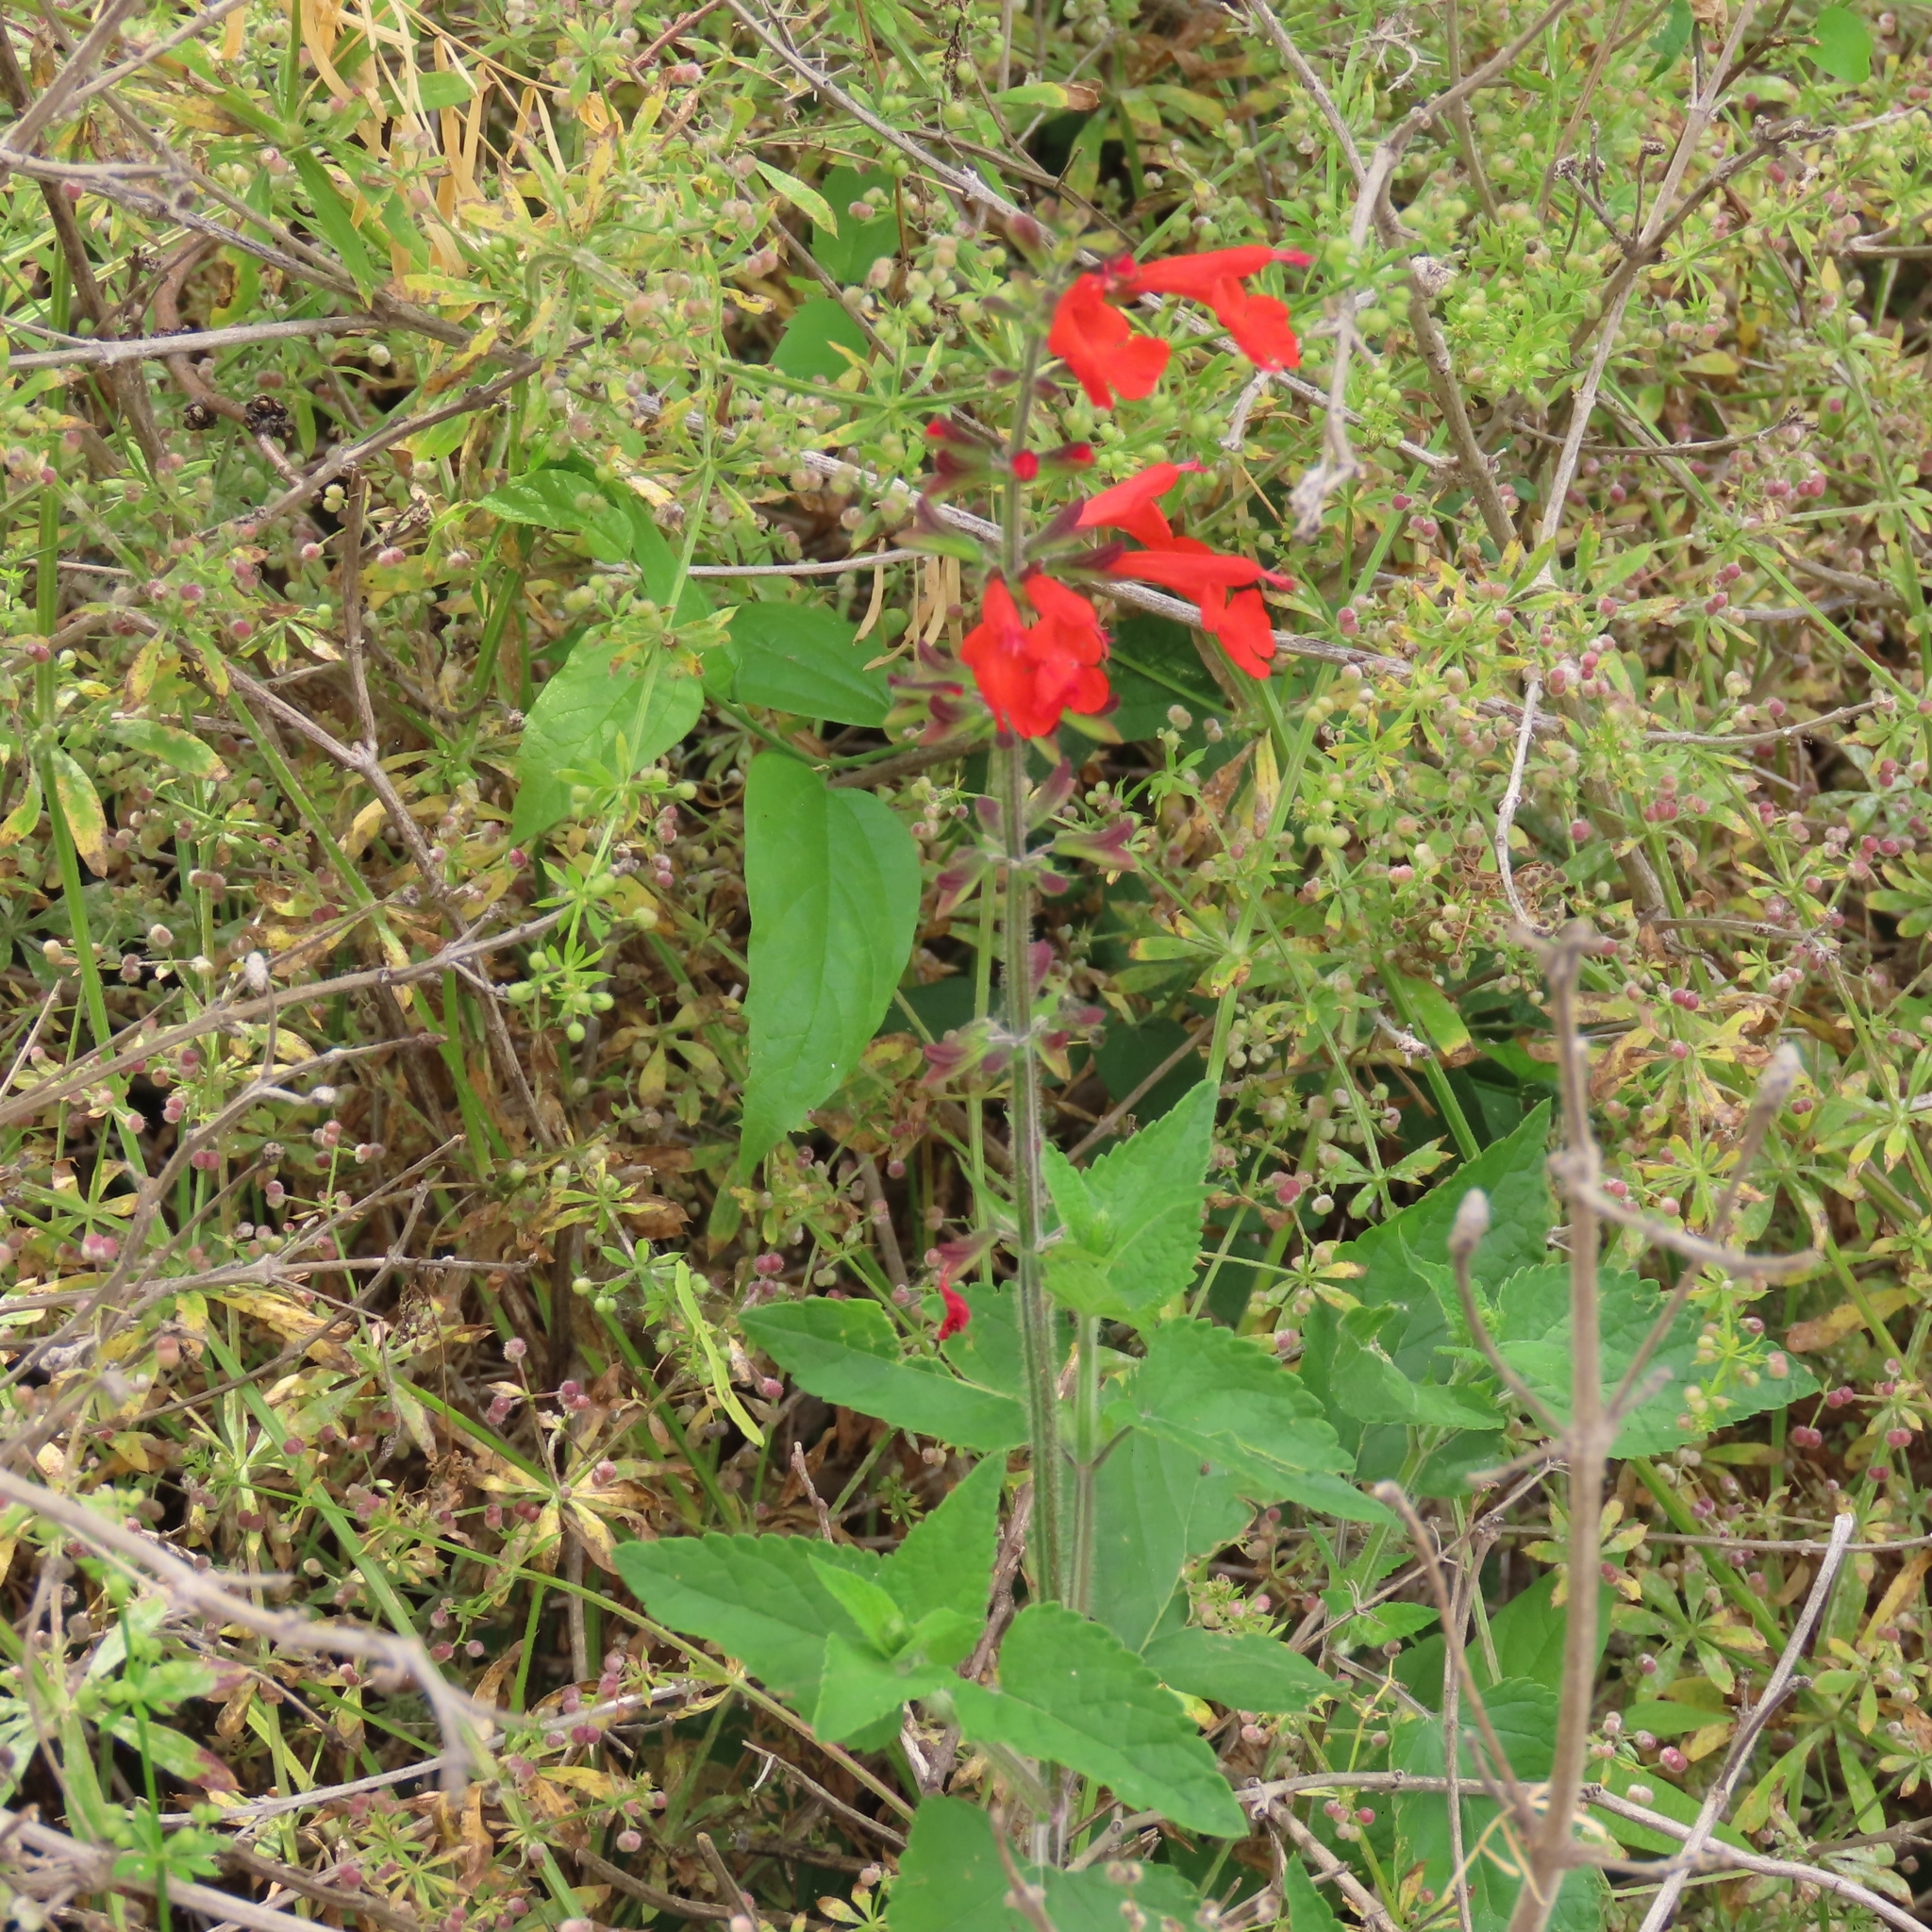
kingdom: Plantae
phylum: Tracheophyta
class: Magnoliopsida
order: Lamiales
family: Lamiaceae
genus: Salvia
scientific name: Salvia coccinea
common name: Blood sage
